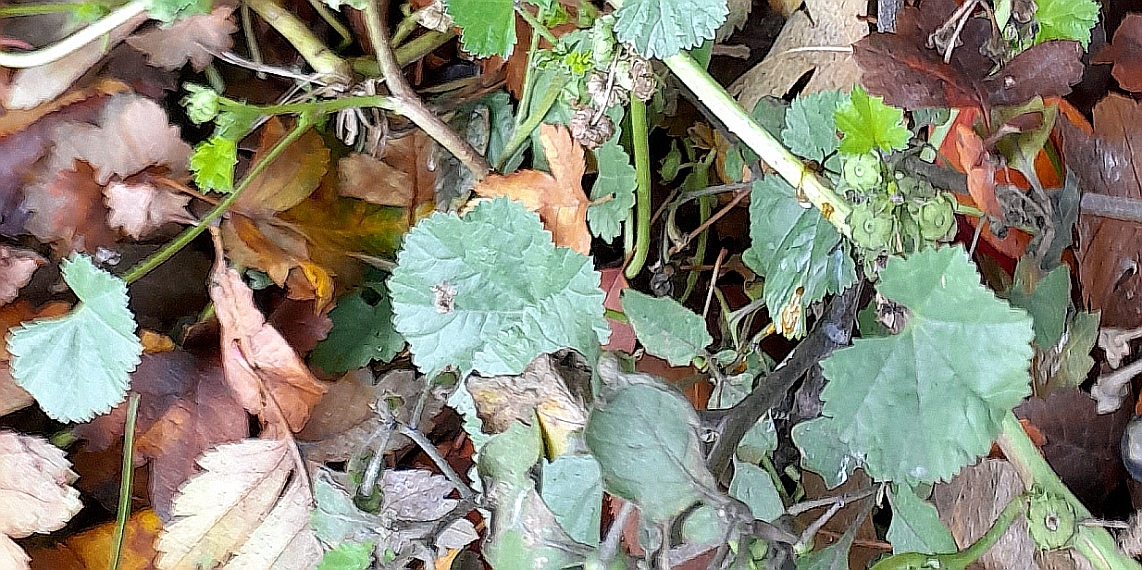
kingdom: Plantae
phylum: Tracheophyta
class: Magnoliopsida
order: Malvales
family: Malvaceae
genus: Malva
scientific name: Malva pusilla
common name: Small mallow
